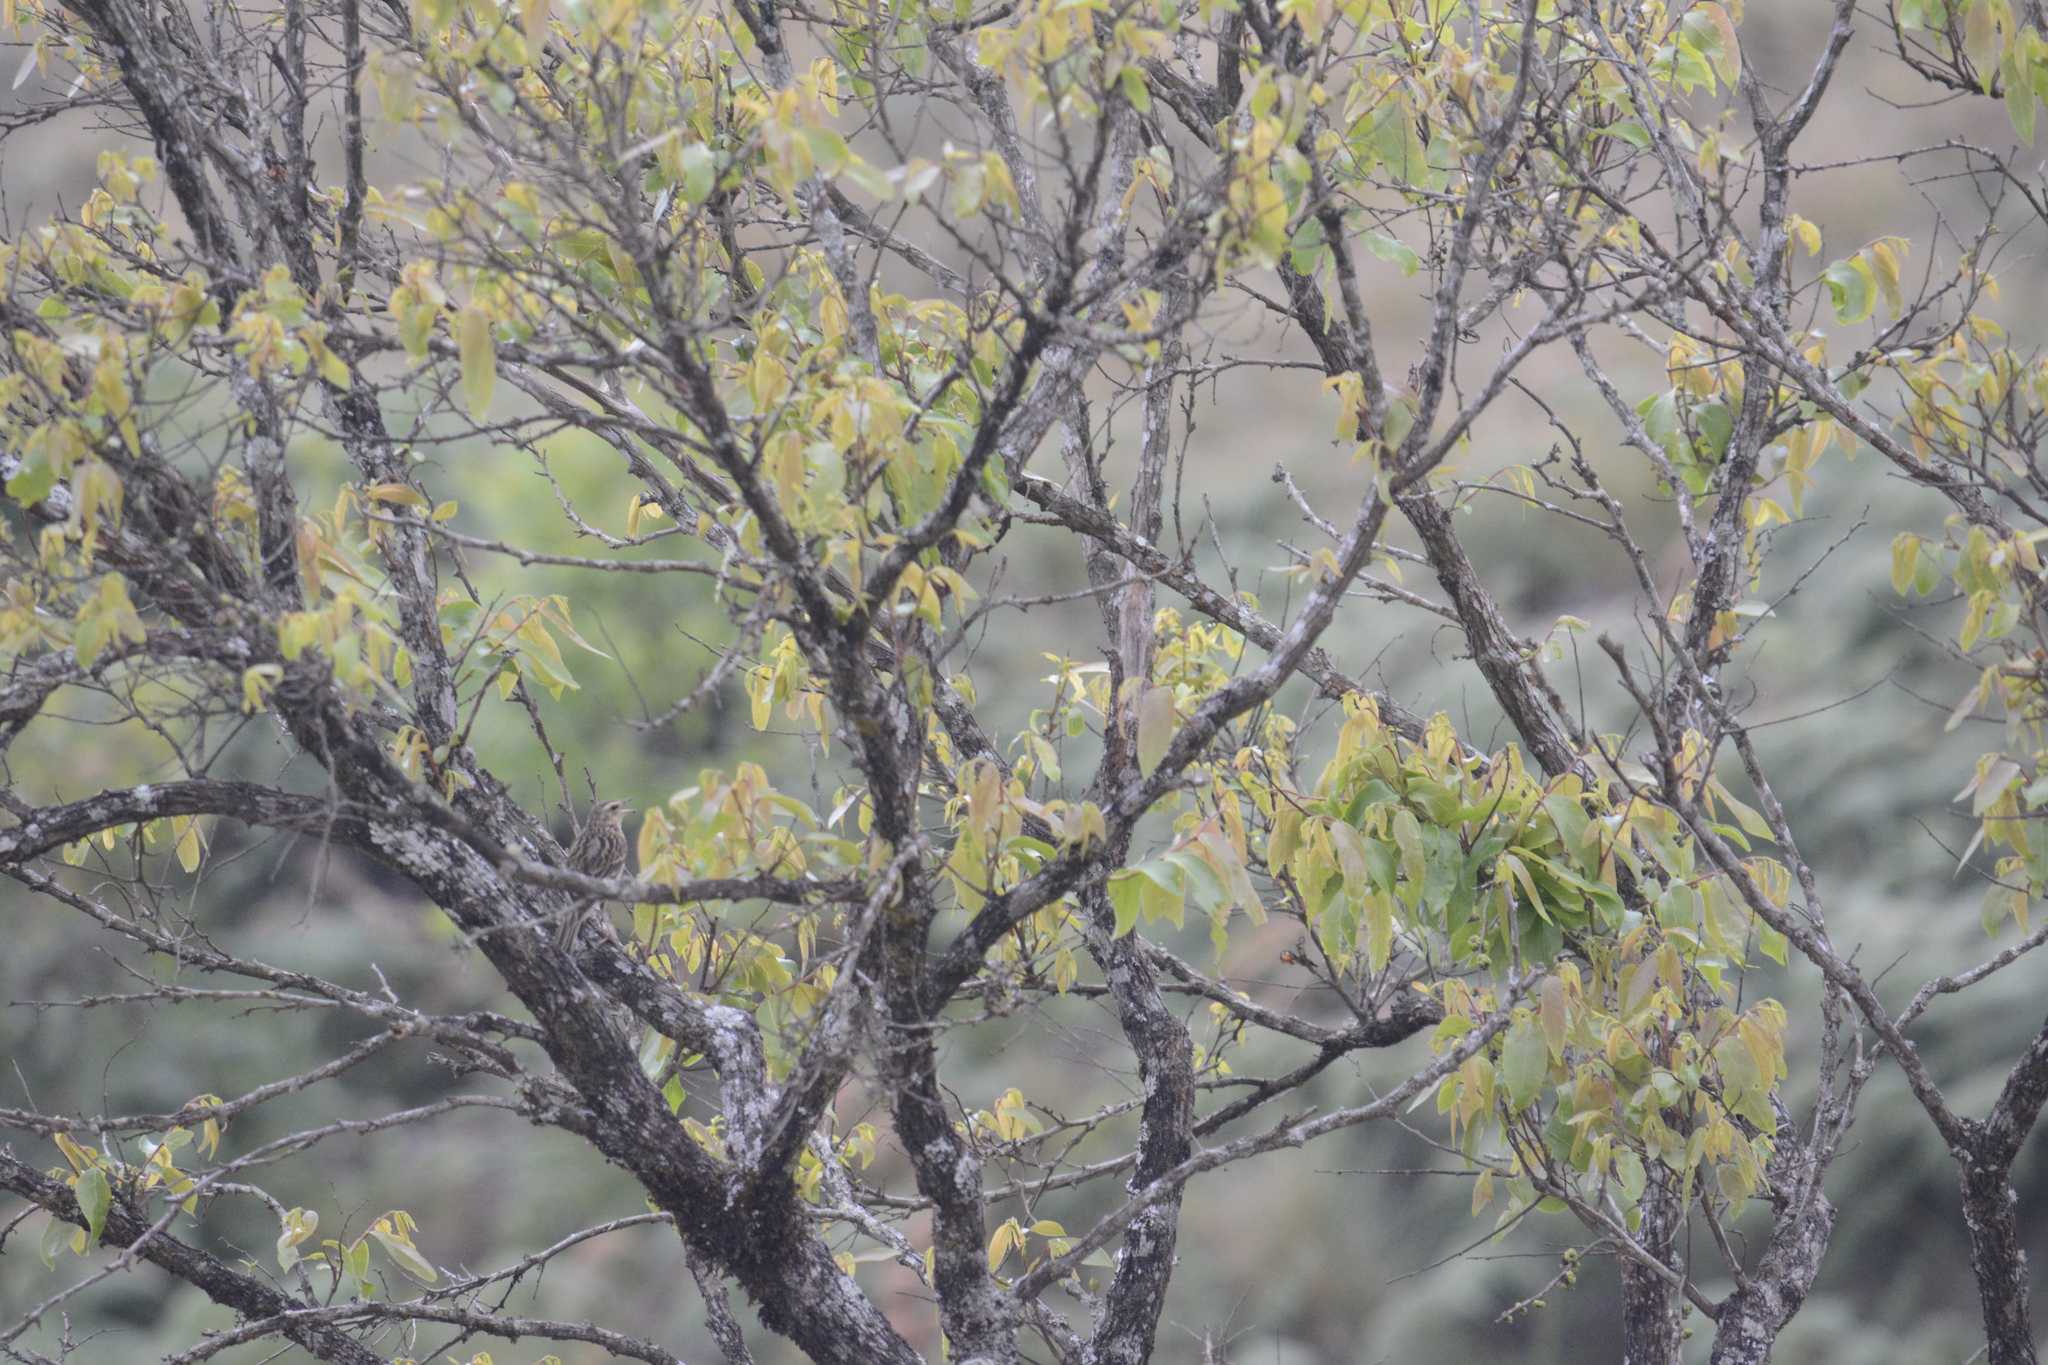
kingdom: Animalia
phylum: Chordata
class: Aves
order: Passeriformes
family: Motacillidae
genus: Anthus
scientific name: Anthus nilghiriensis
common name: Nilgiri pipit
